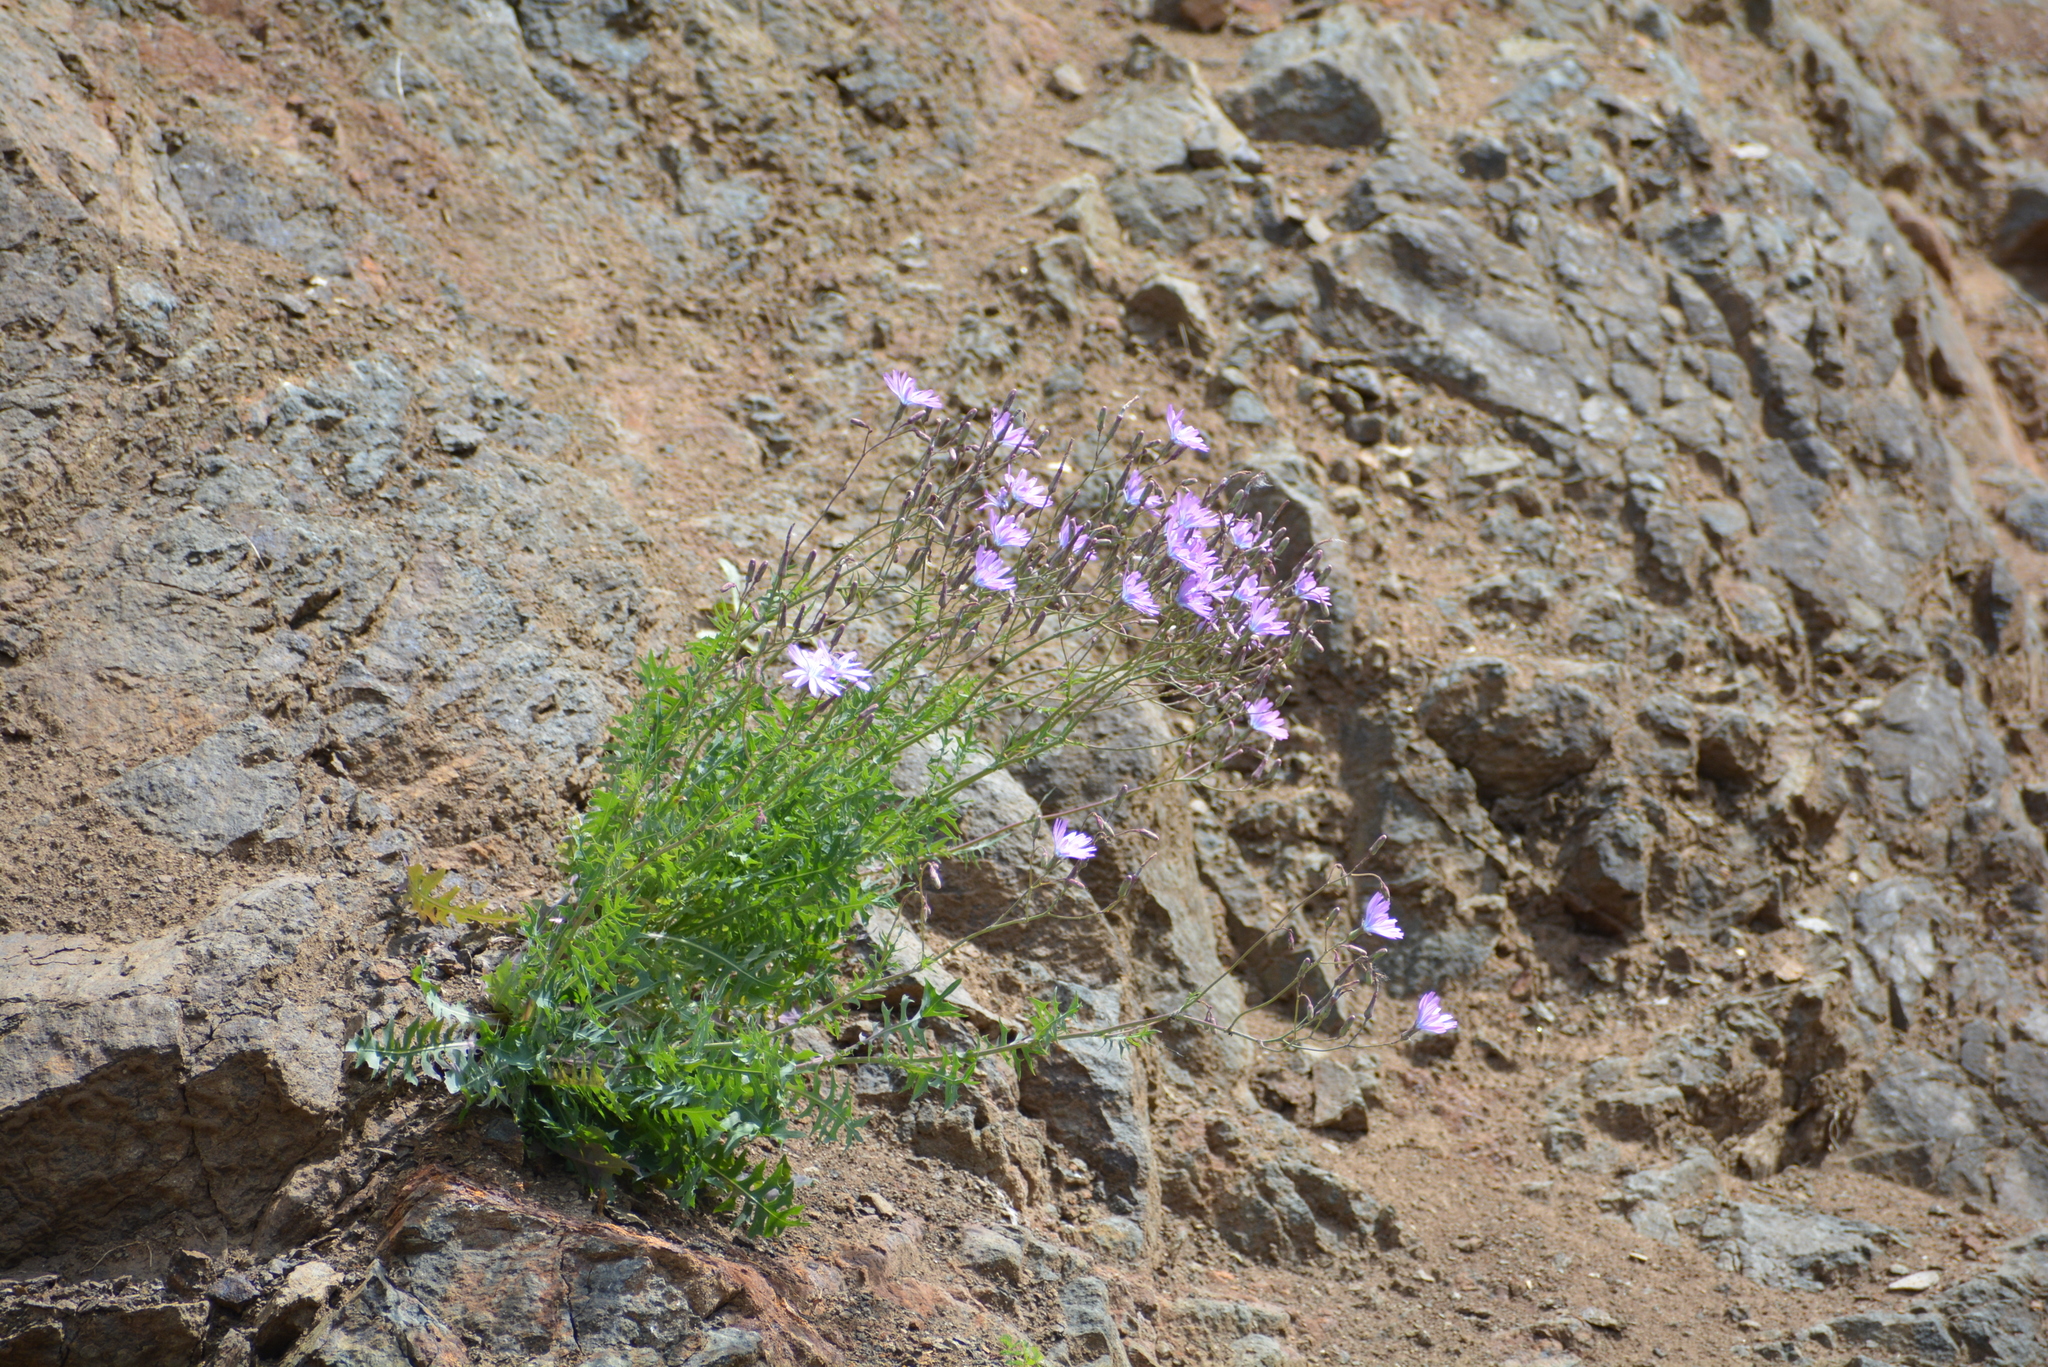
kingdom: Plantae
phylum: Tracheophyta
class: Magnoliopsida
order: Asterales
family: Asteraceae
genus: Lactuca
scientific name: Lactuca perennis
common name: Mountain lettuce
